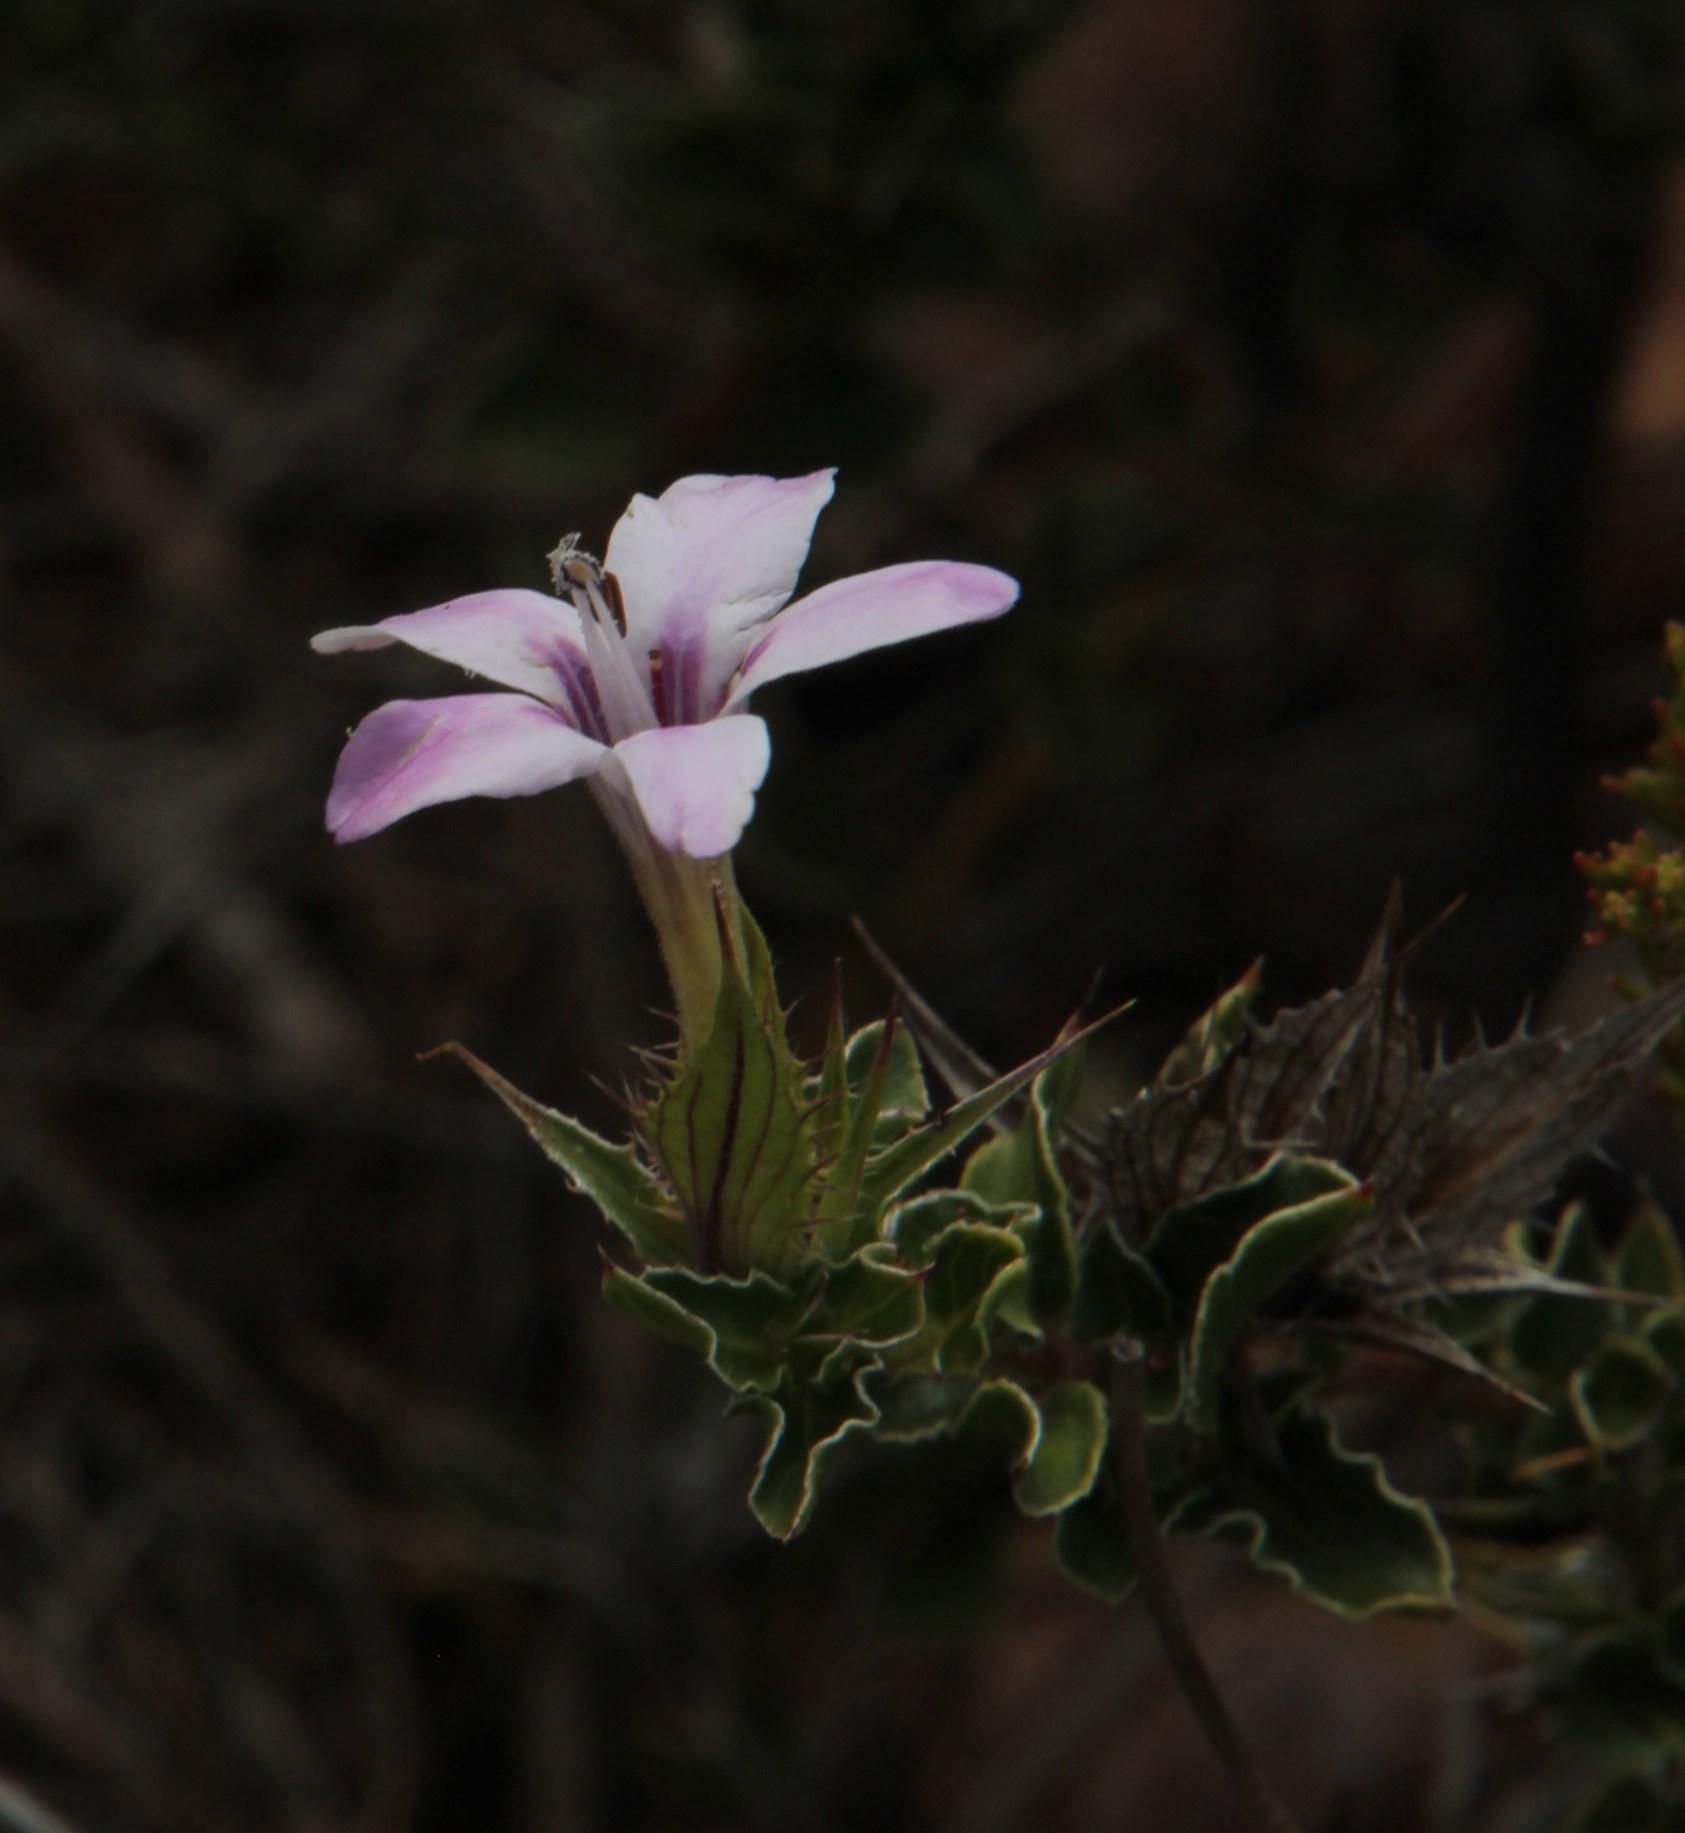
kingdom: Plantae
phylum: Tracheophyta
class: Magnoliopsida
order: Lamiales
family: Acanthaceae
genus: Barleria
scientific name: Barleria pungens
